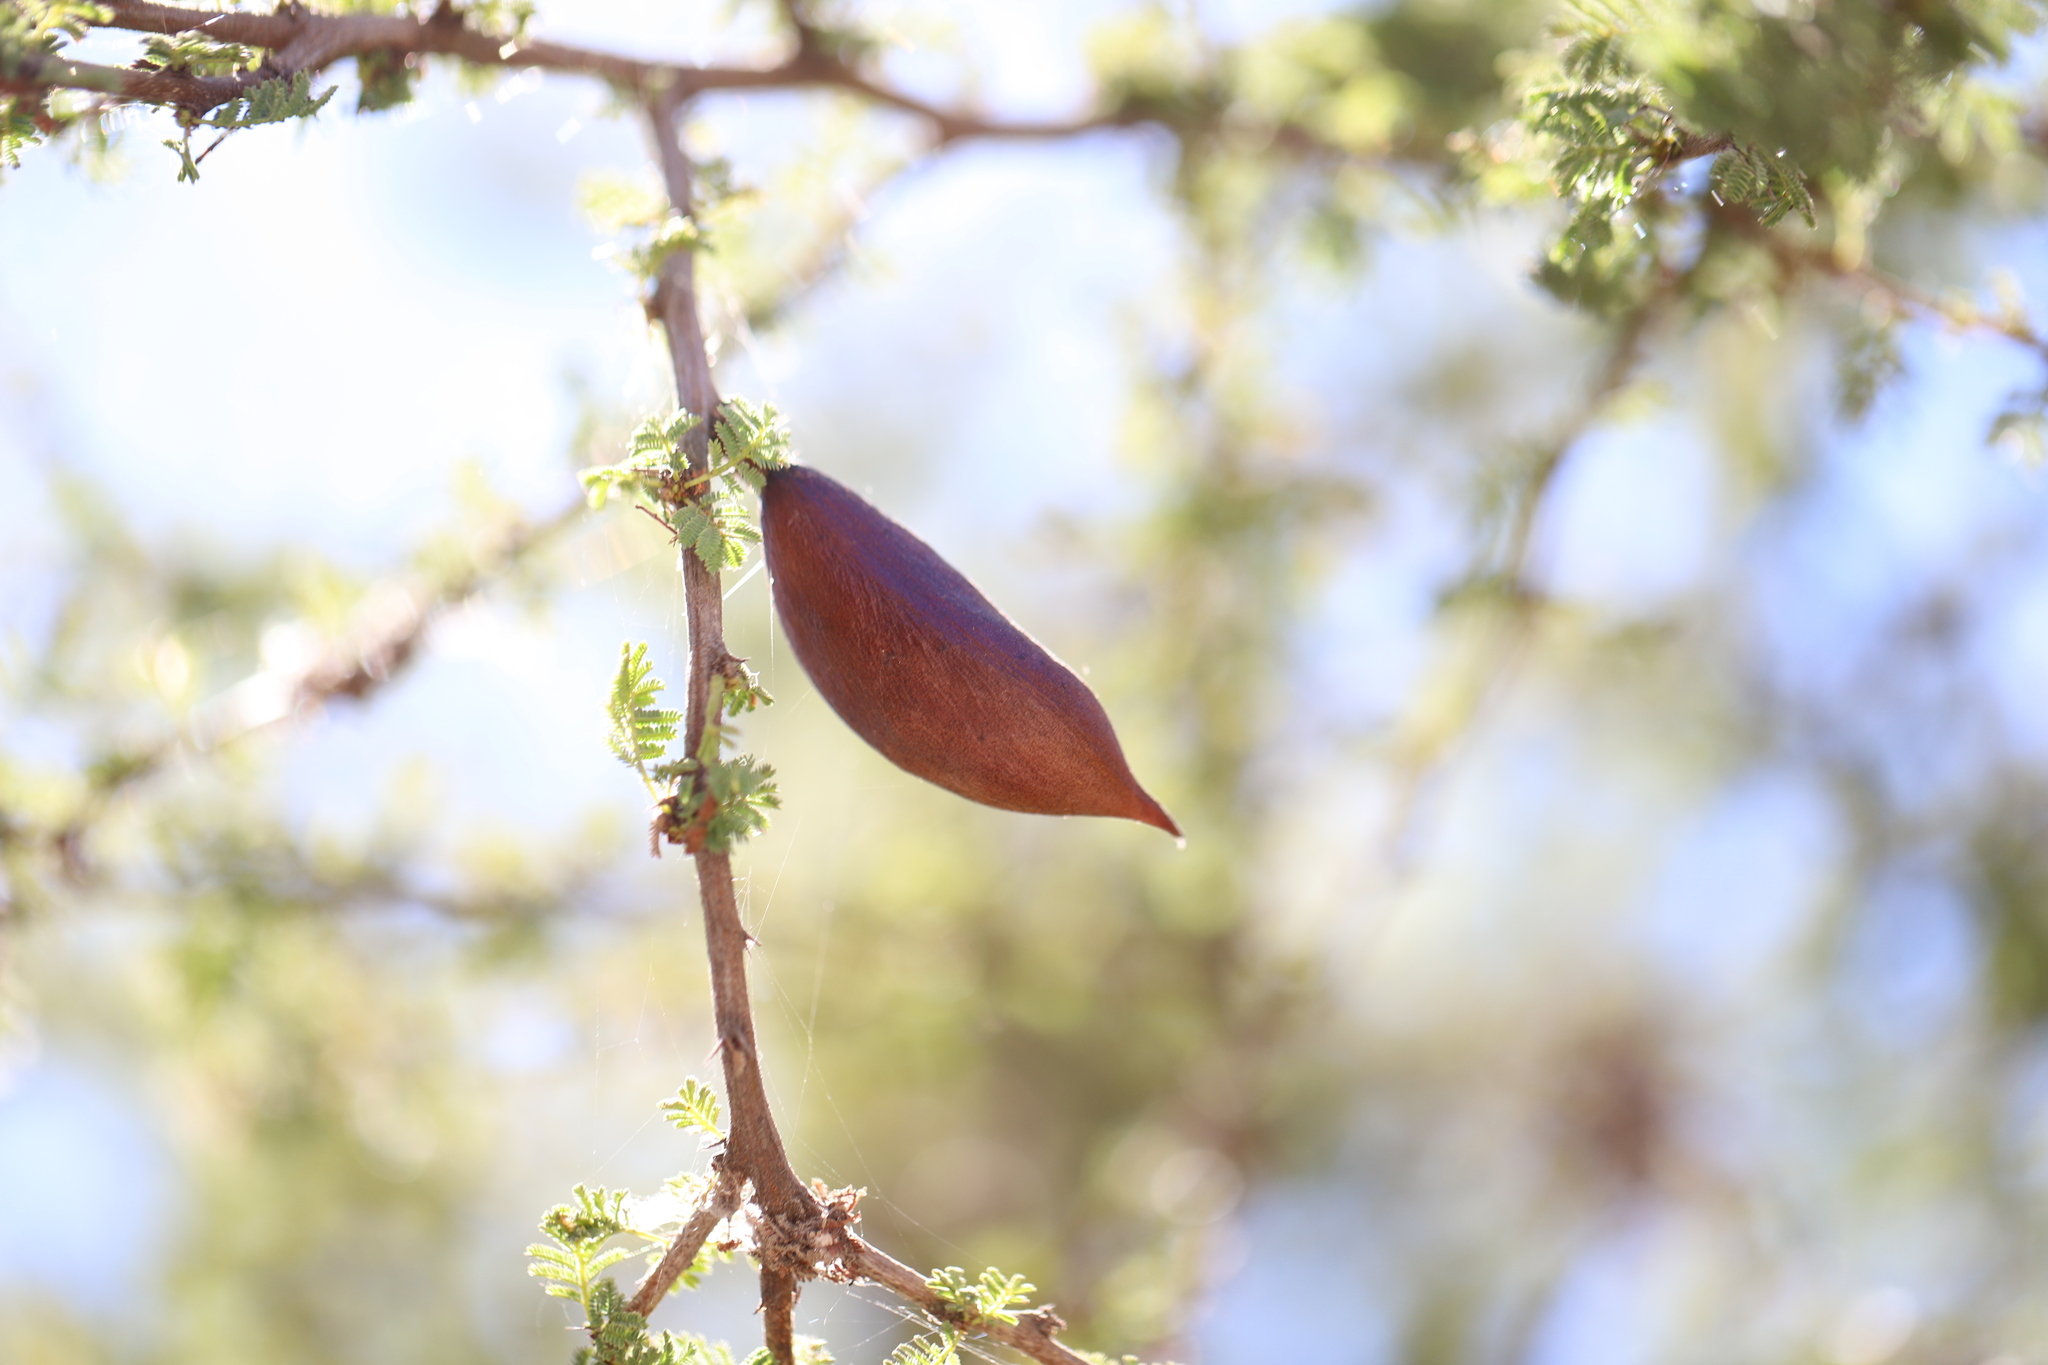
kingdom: Plantae
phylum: Tracheophyta
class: Magnoliopsida
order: Fabales
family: Fabaceae
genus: Vachellia
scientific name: Vachellia caven
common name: Roman cassie
